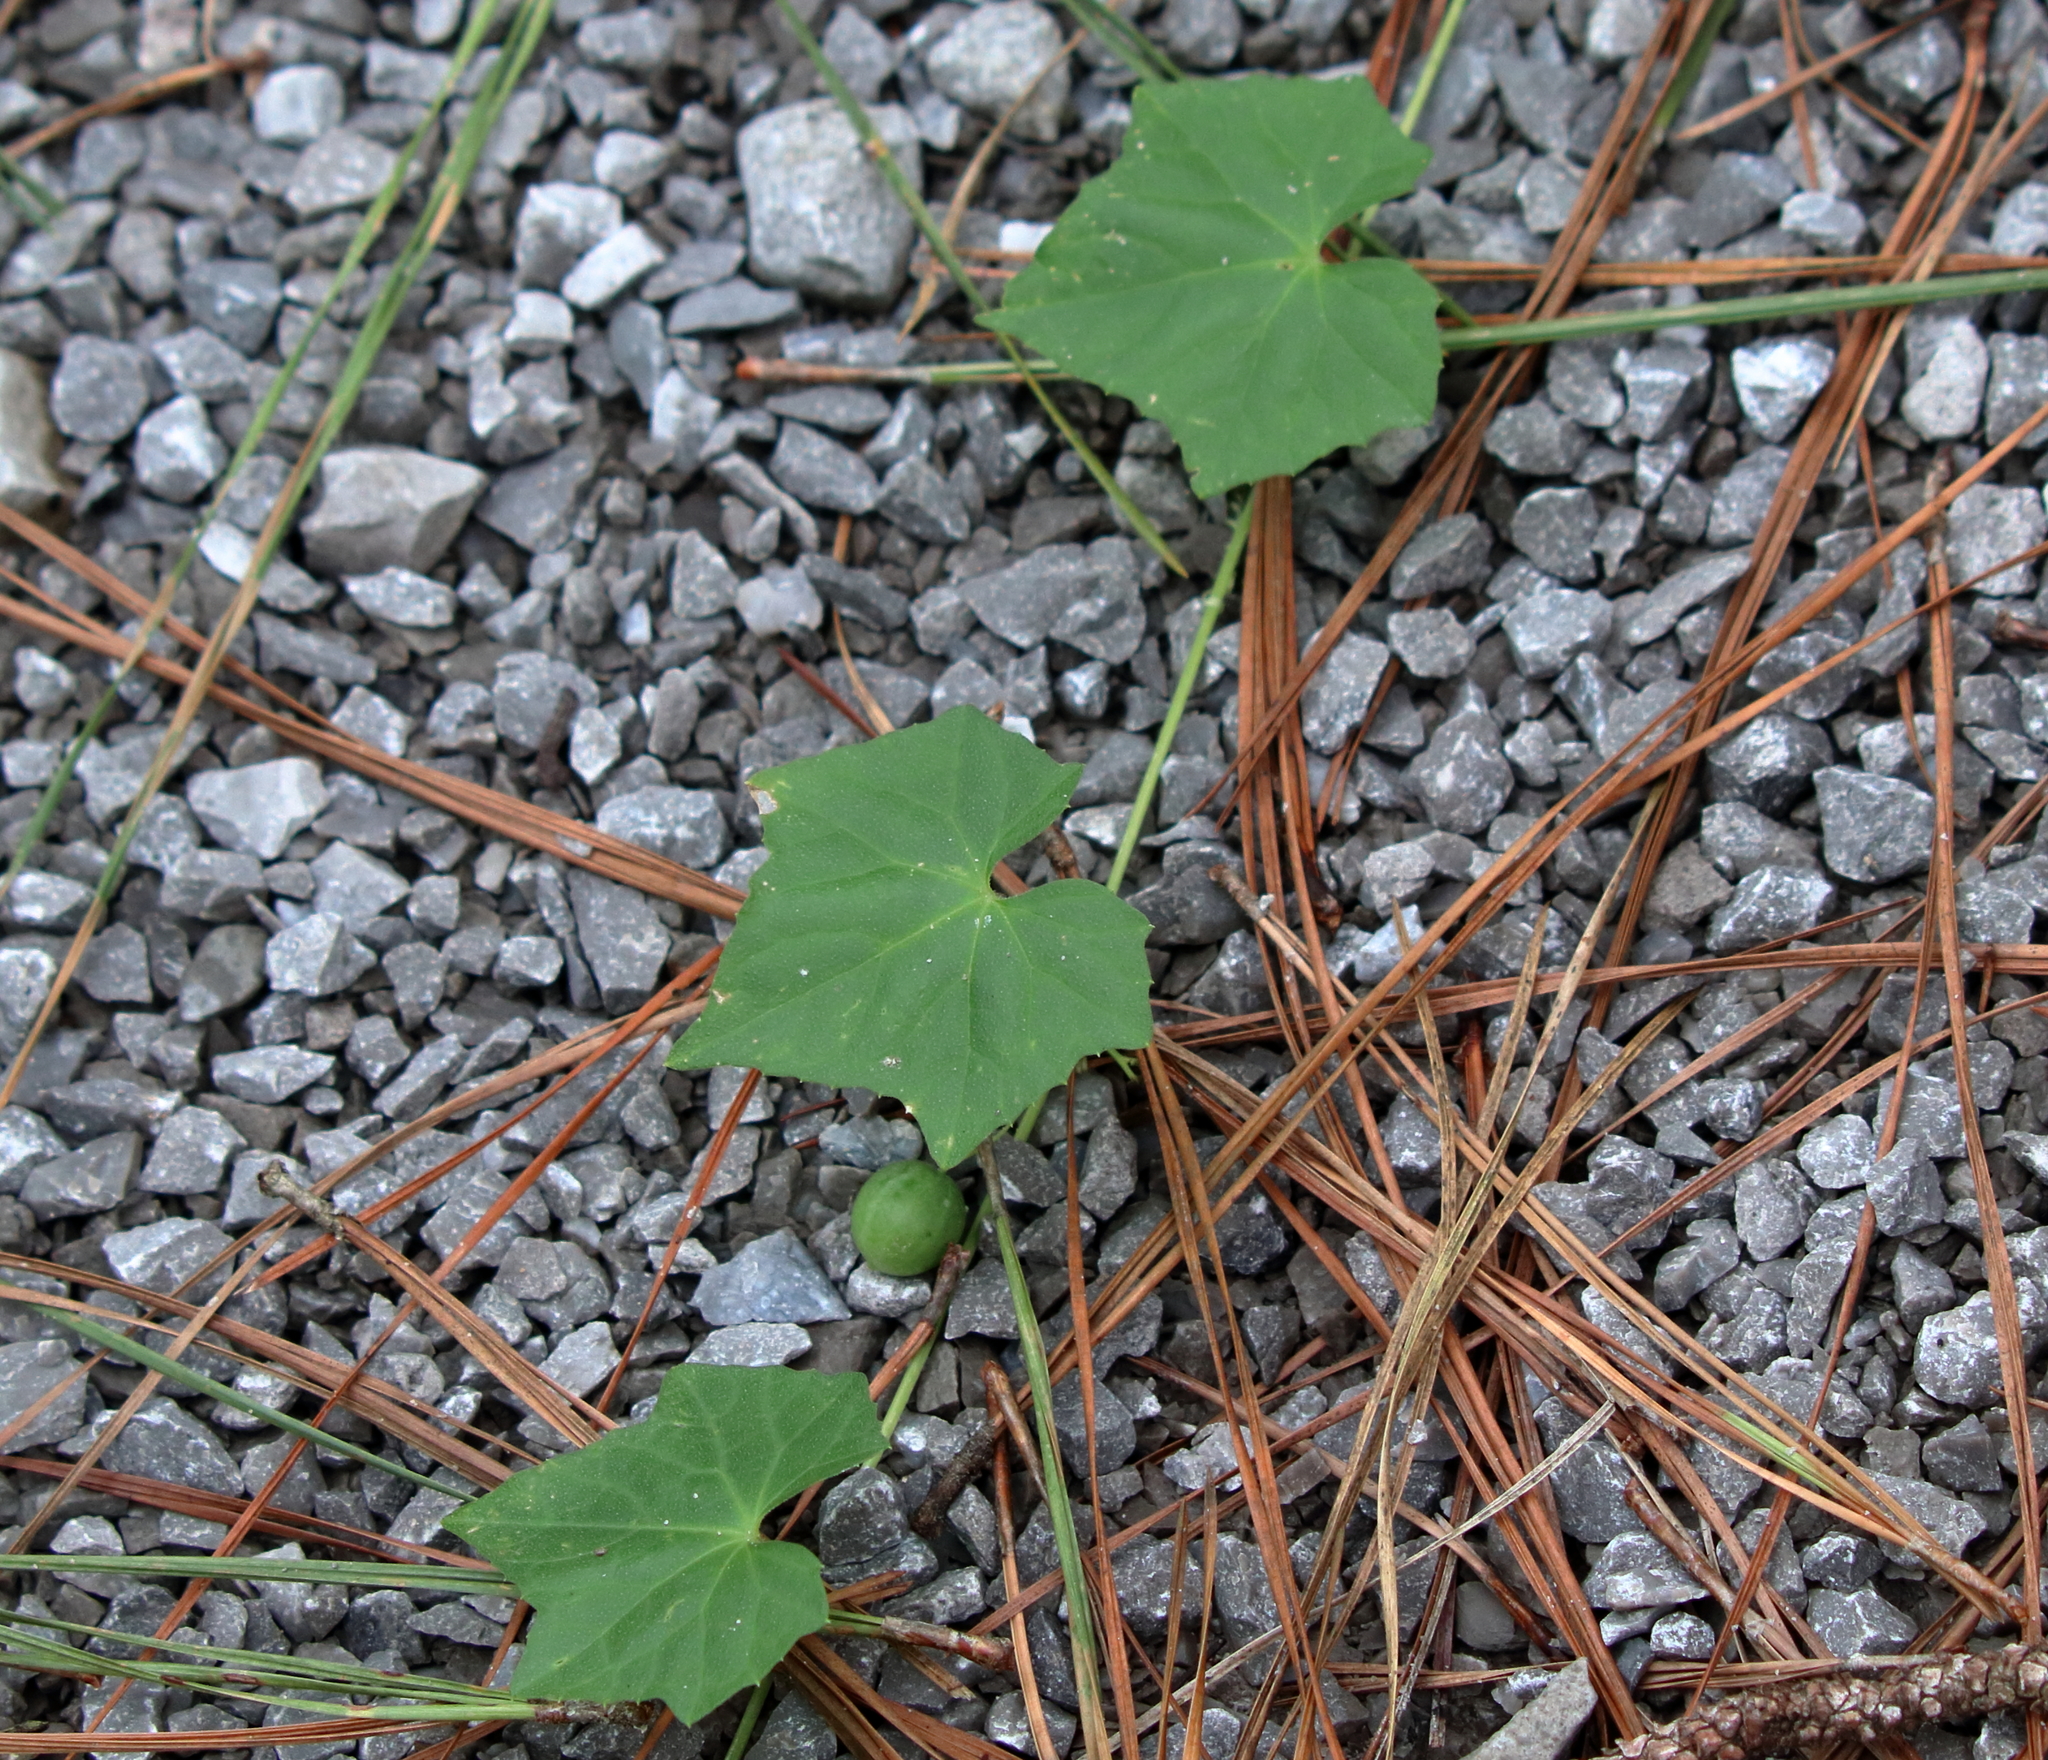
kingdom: Plantae
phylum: Tracheophyta
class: Magnoliopsida
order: Cucurbitales
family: Cucurbitaceae
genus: Melothria
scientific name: Melothria pendula
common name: Creeping-cucumber
